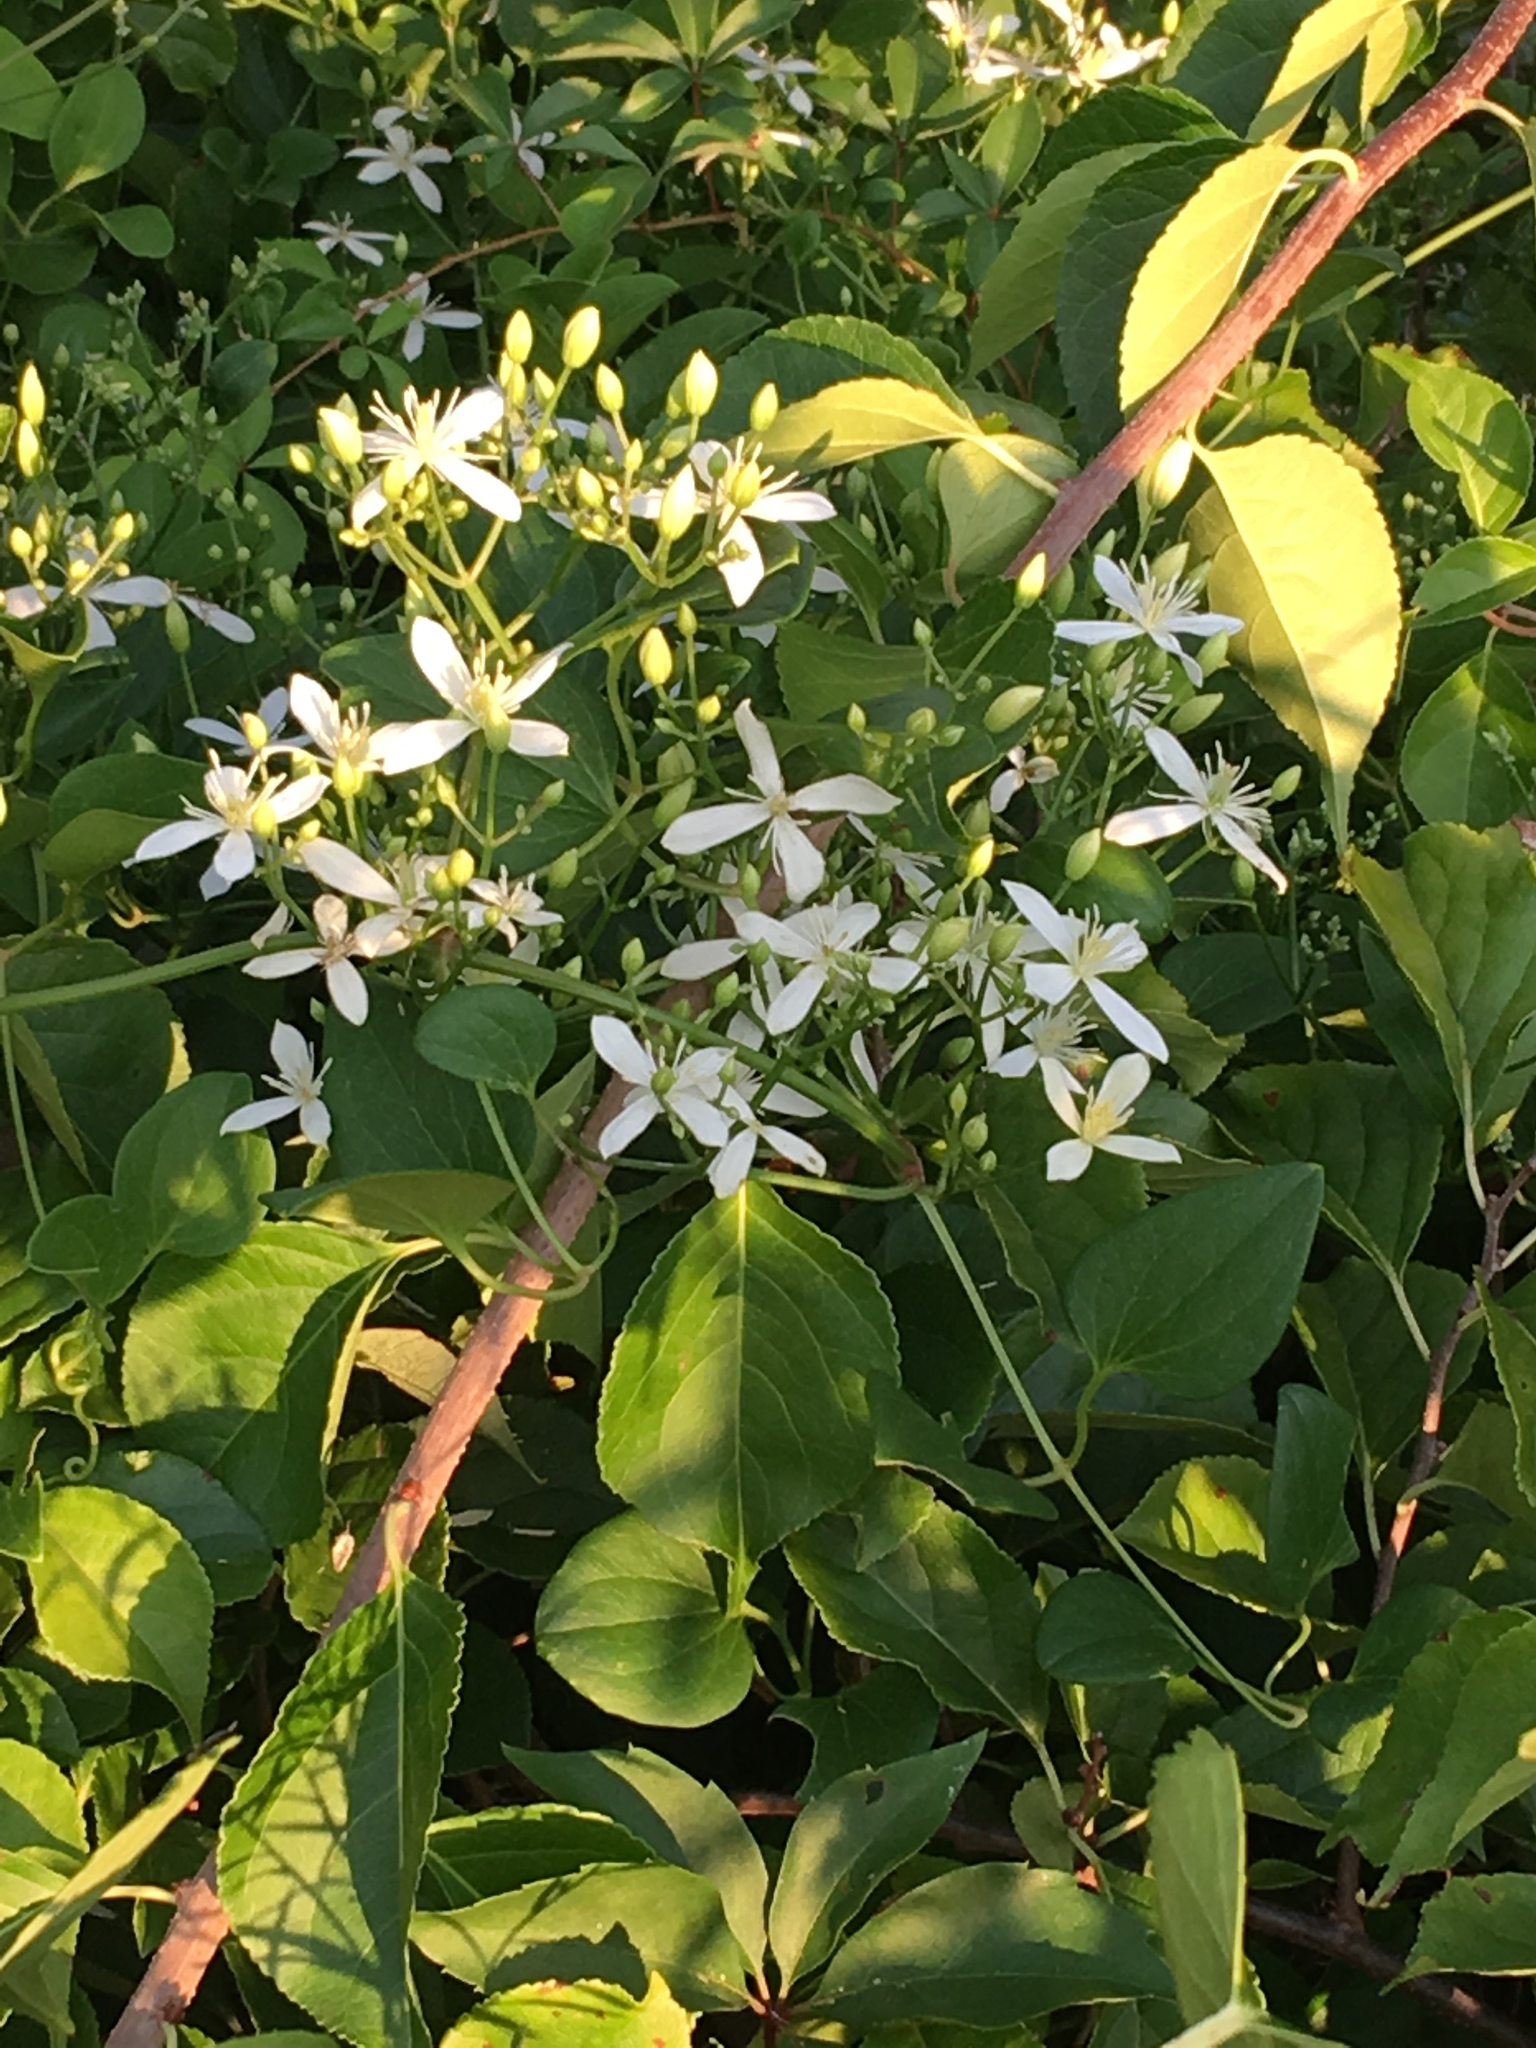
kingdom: Plantae
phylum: Tracheophyta
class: Magnoliopsida
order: Ranunculales
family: Ranunculaceae
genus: Clematis
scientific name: Clematis terniflora
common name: Sweet autumn clematis
